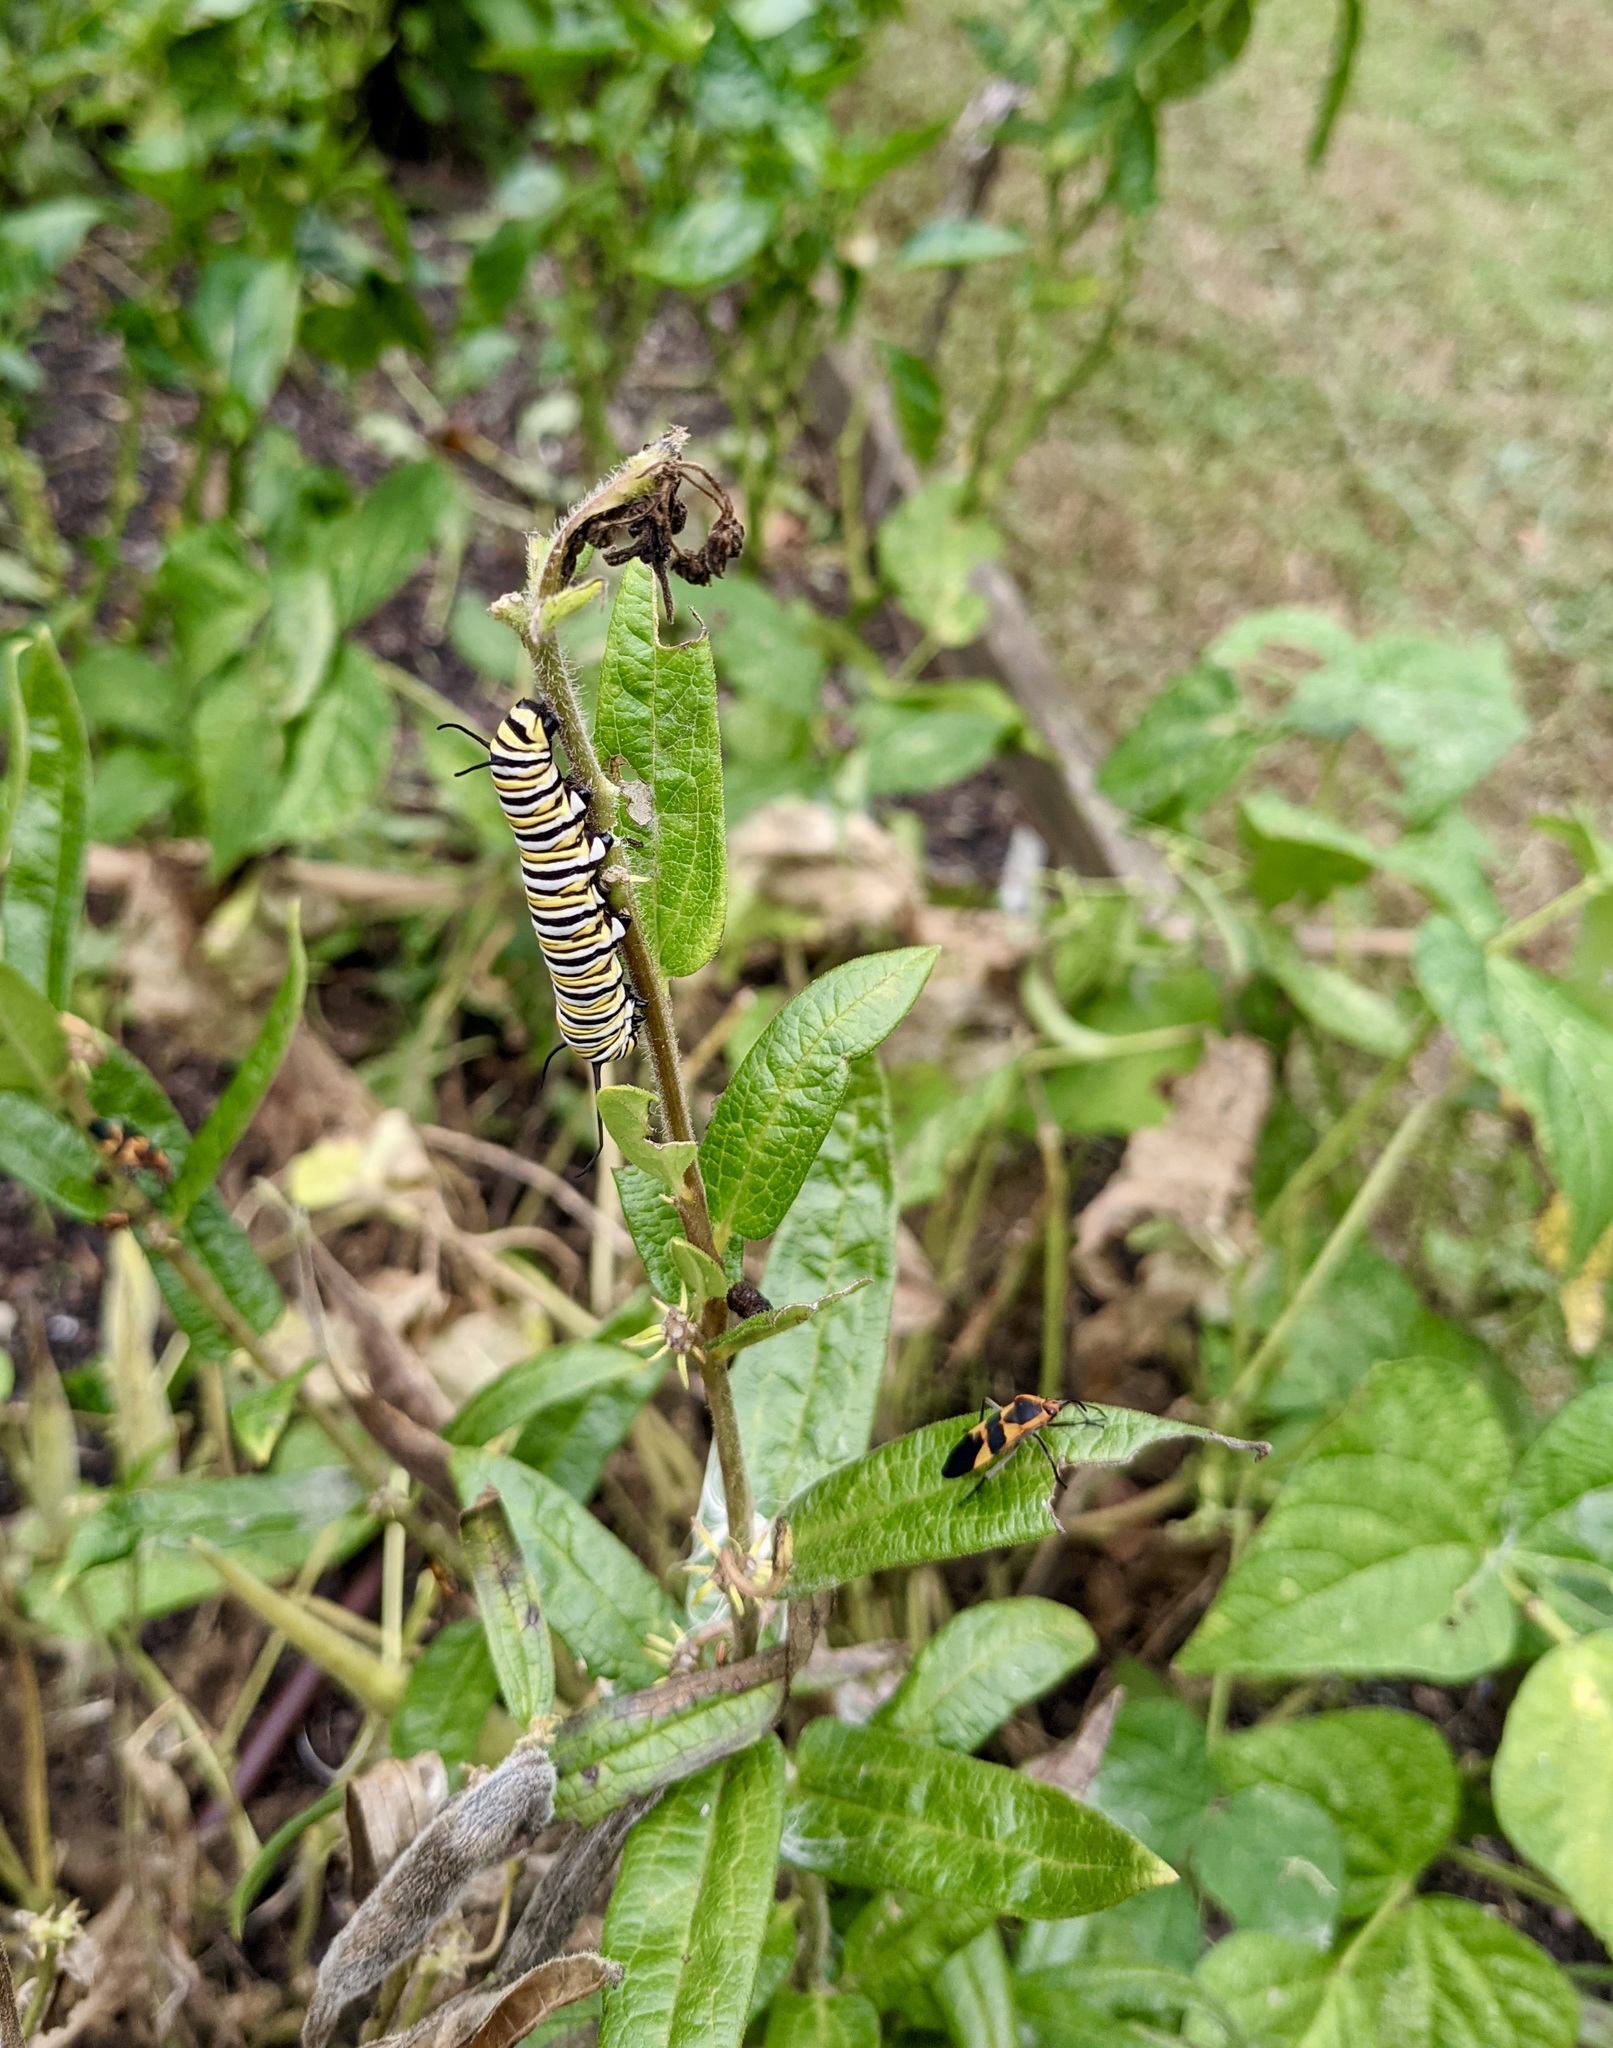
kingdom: Animalia
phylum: Arthropoda
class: Insecta
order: Lepidoptera
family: Nymphalidae
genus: Danaus
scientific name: Danaus plexippus
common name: Monarch
